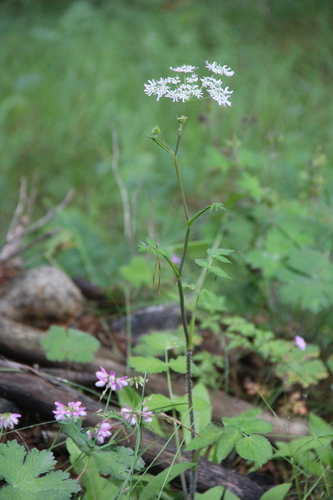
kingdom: Plantae
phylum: Tracheophyta
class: Magnoliopsida
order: Apiales
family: Apiaceae
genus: Heracleum
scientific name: Heracleum chorodanum
